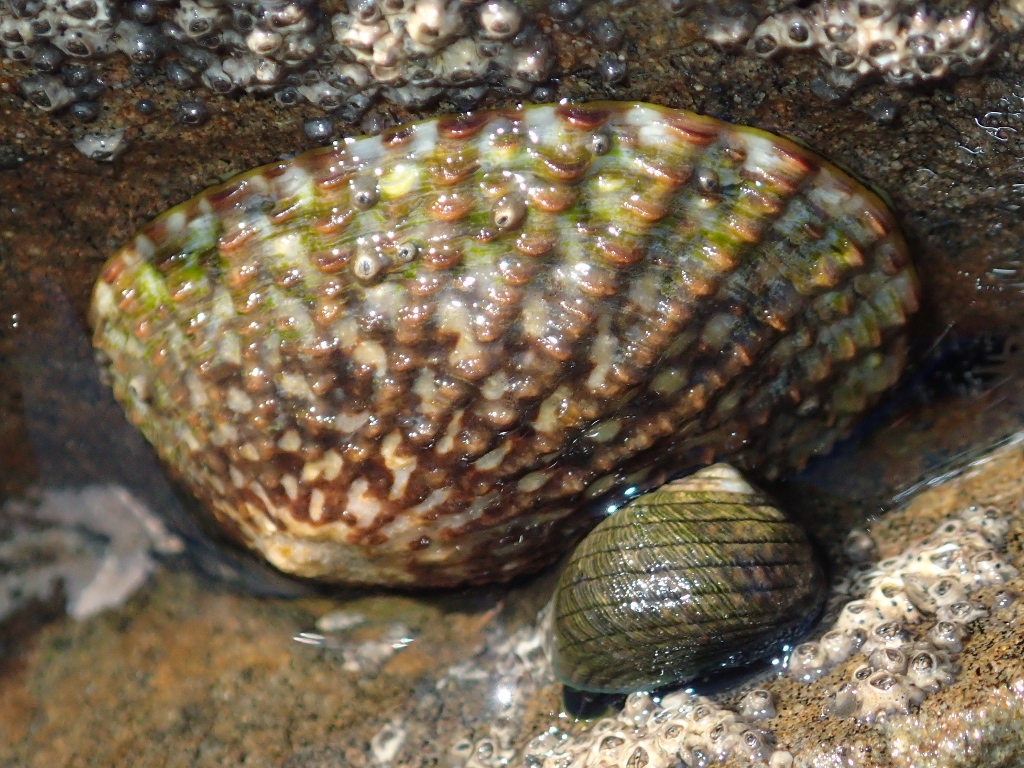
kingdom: Animalia
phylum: Mollusca
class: Gastropoda
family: Nacellidae
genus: Cellana
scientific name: Cellana denticulata
